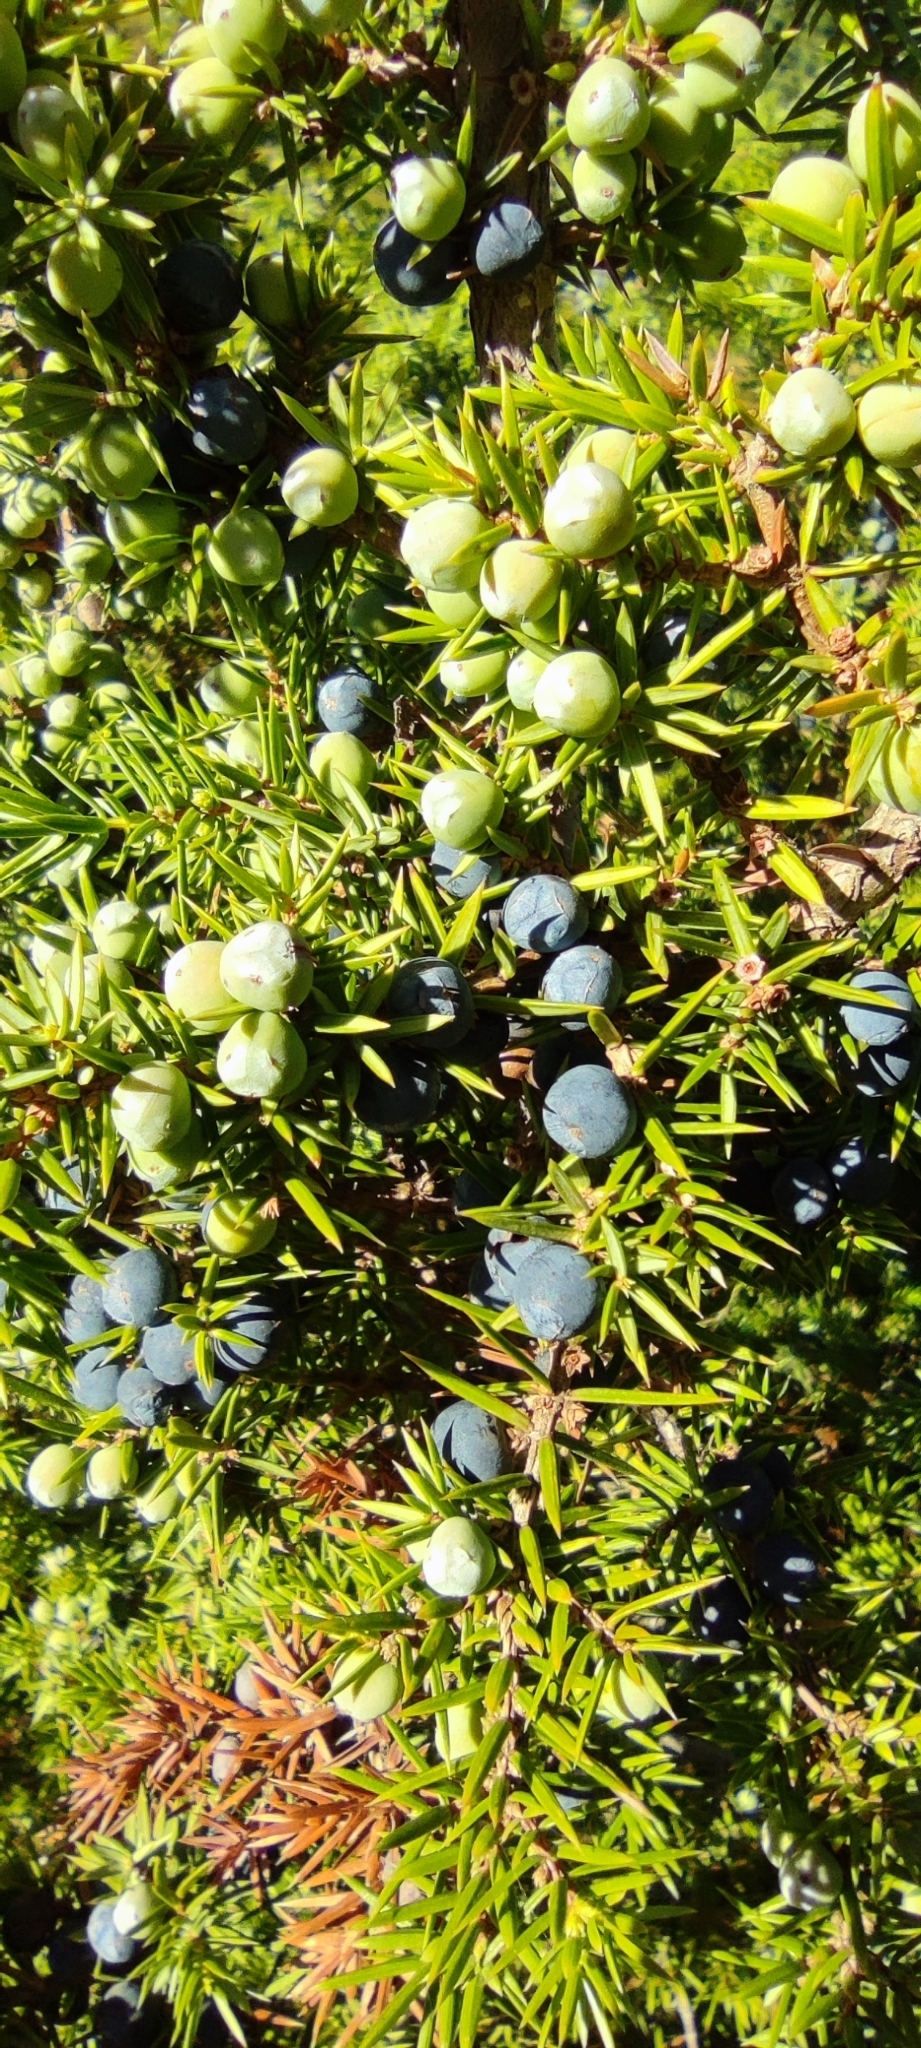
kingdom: Plantae
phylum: Tracheophyta
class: Pinopsida
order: Pinales
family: Cupressaceae
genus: Juniperus
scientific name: Juniperus communis
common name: Common juniper
